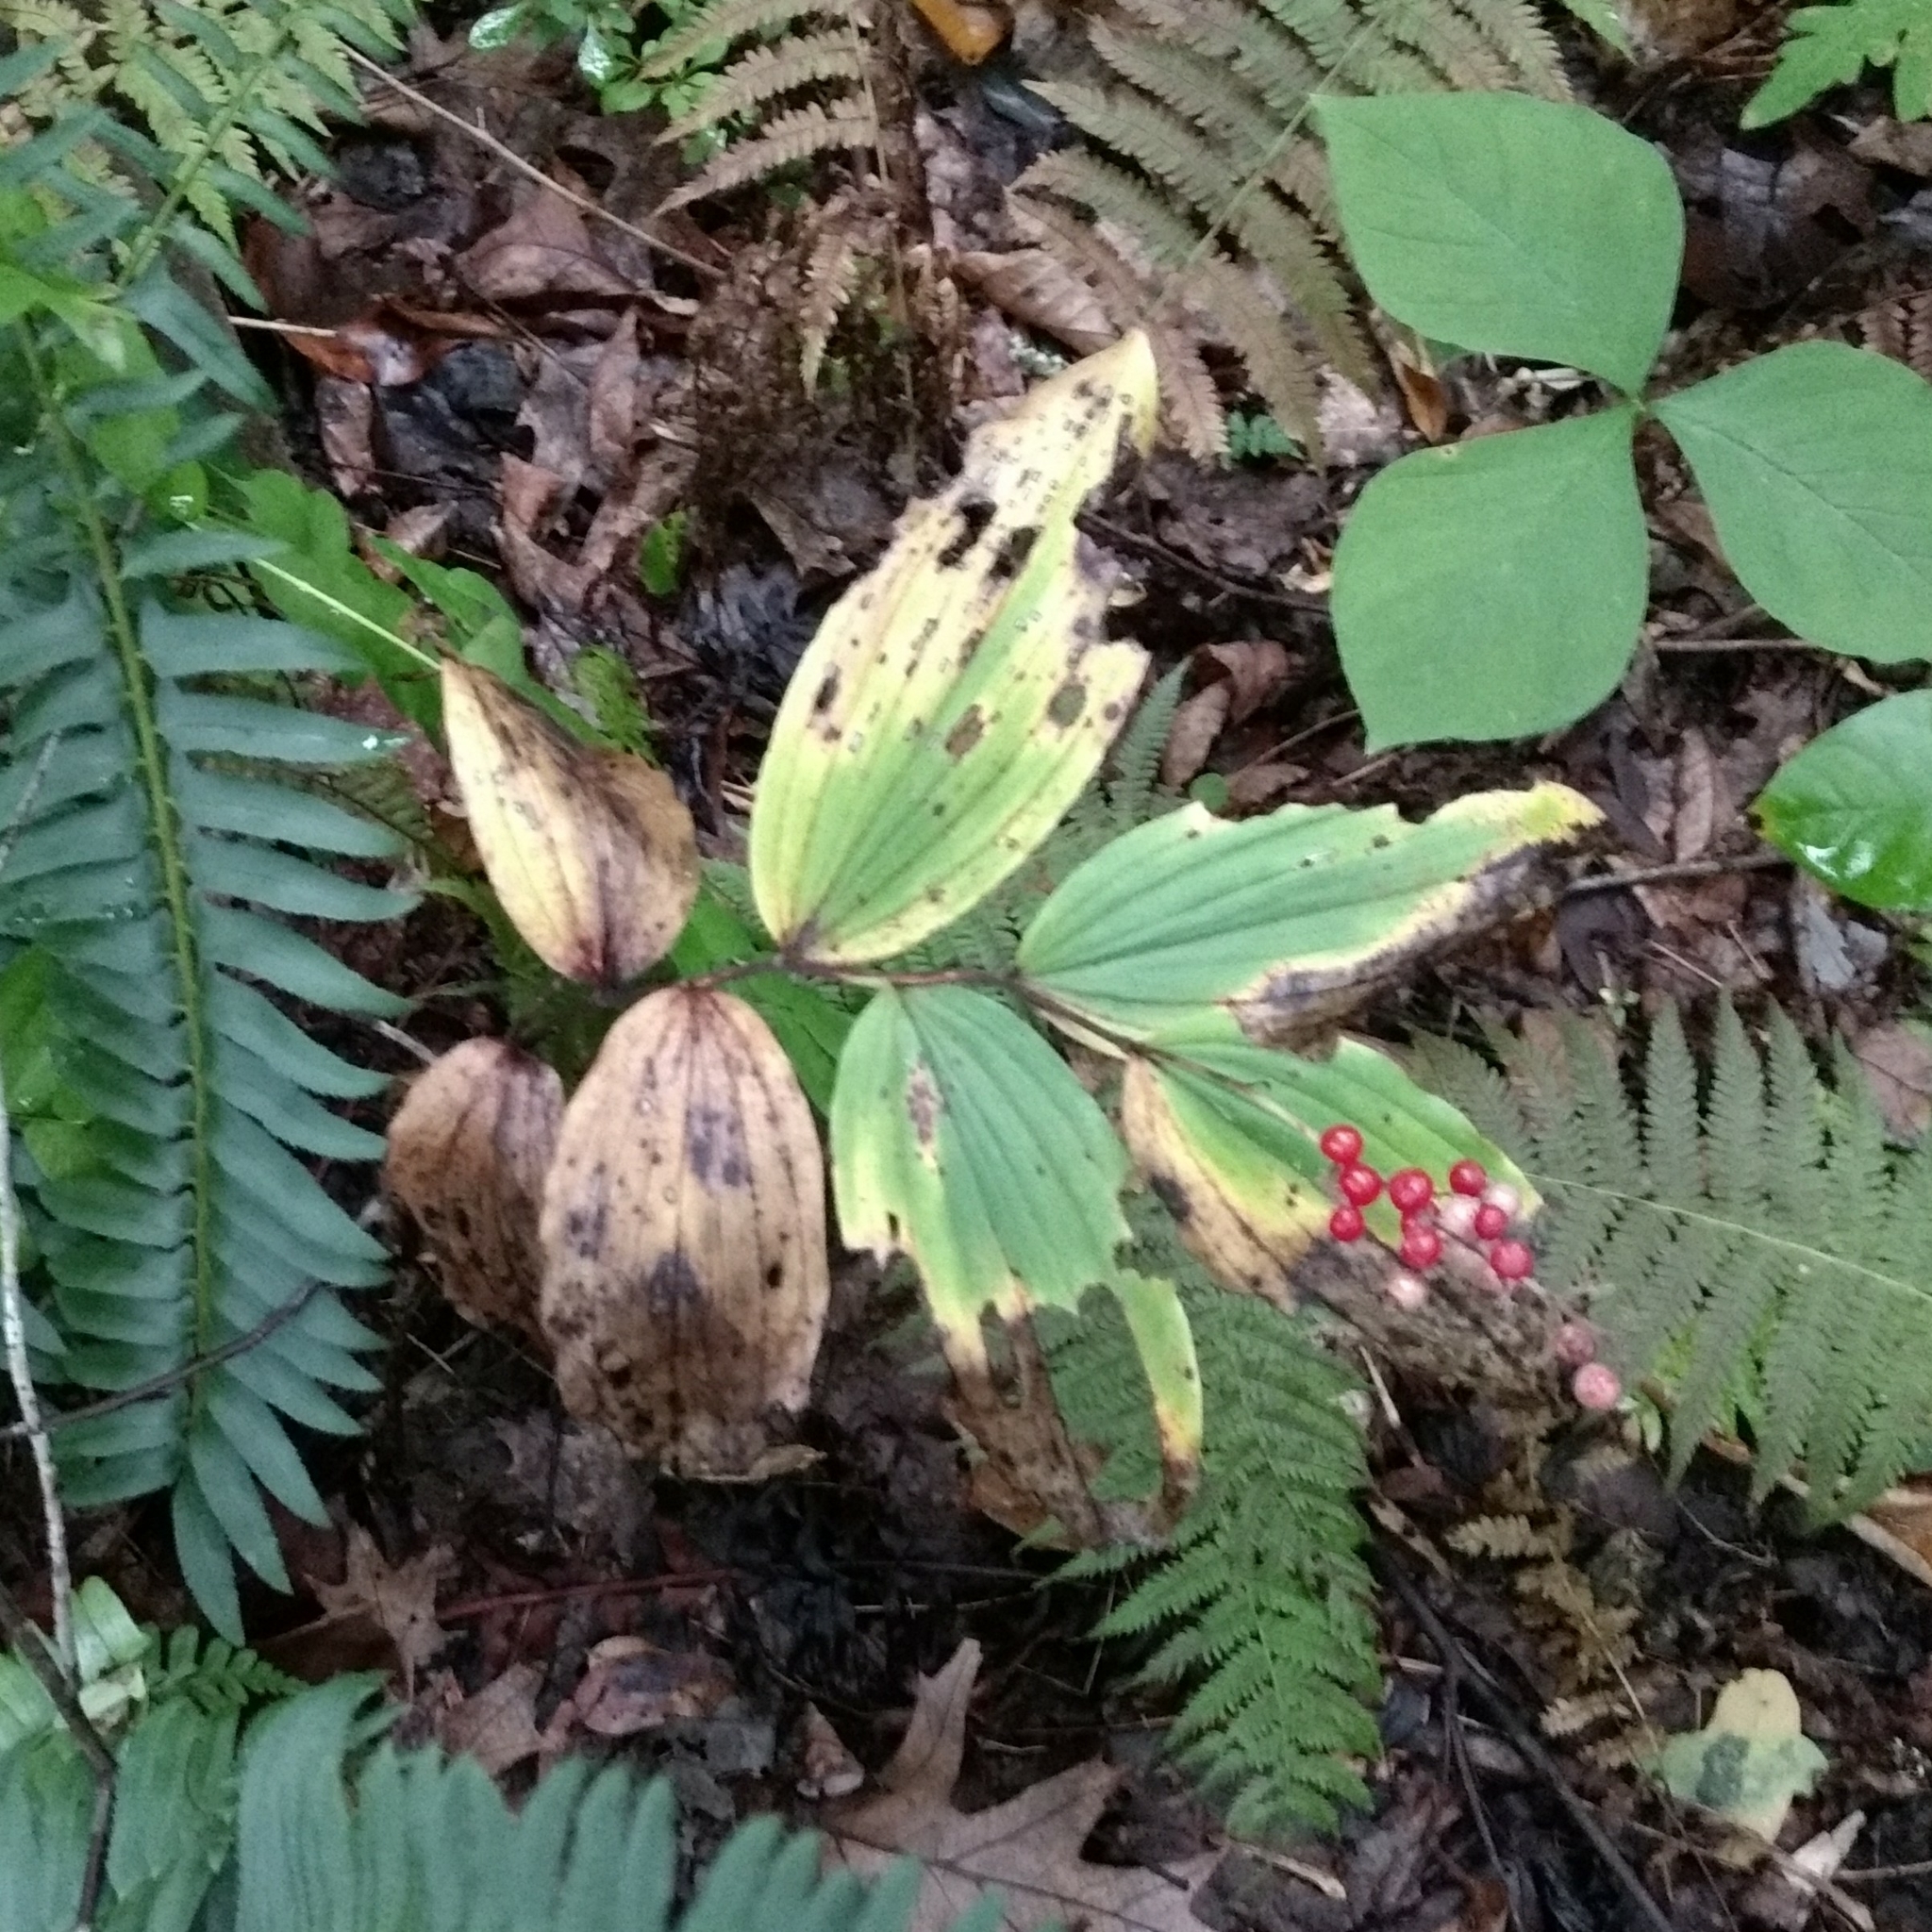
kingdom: Plantae
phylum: Tracheophyta
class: Liliopsida
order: Asparagales
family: Asparagaceae
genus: Maianthemum
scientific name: Maianthemum racemosum
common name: False spikenard
